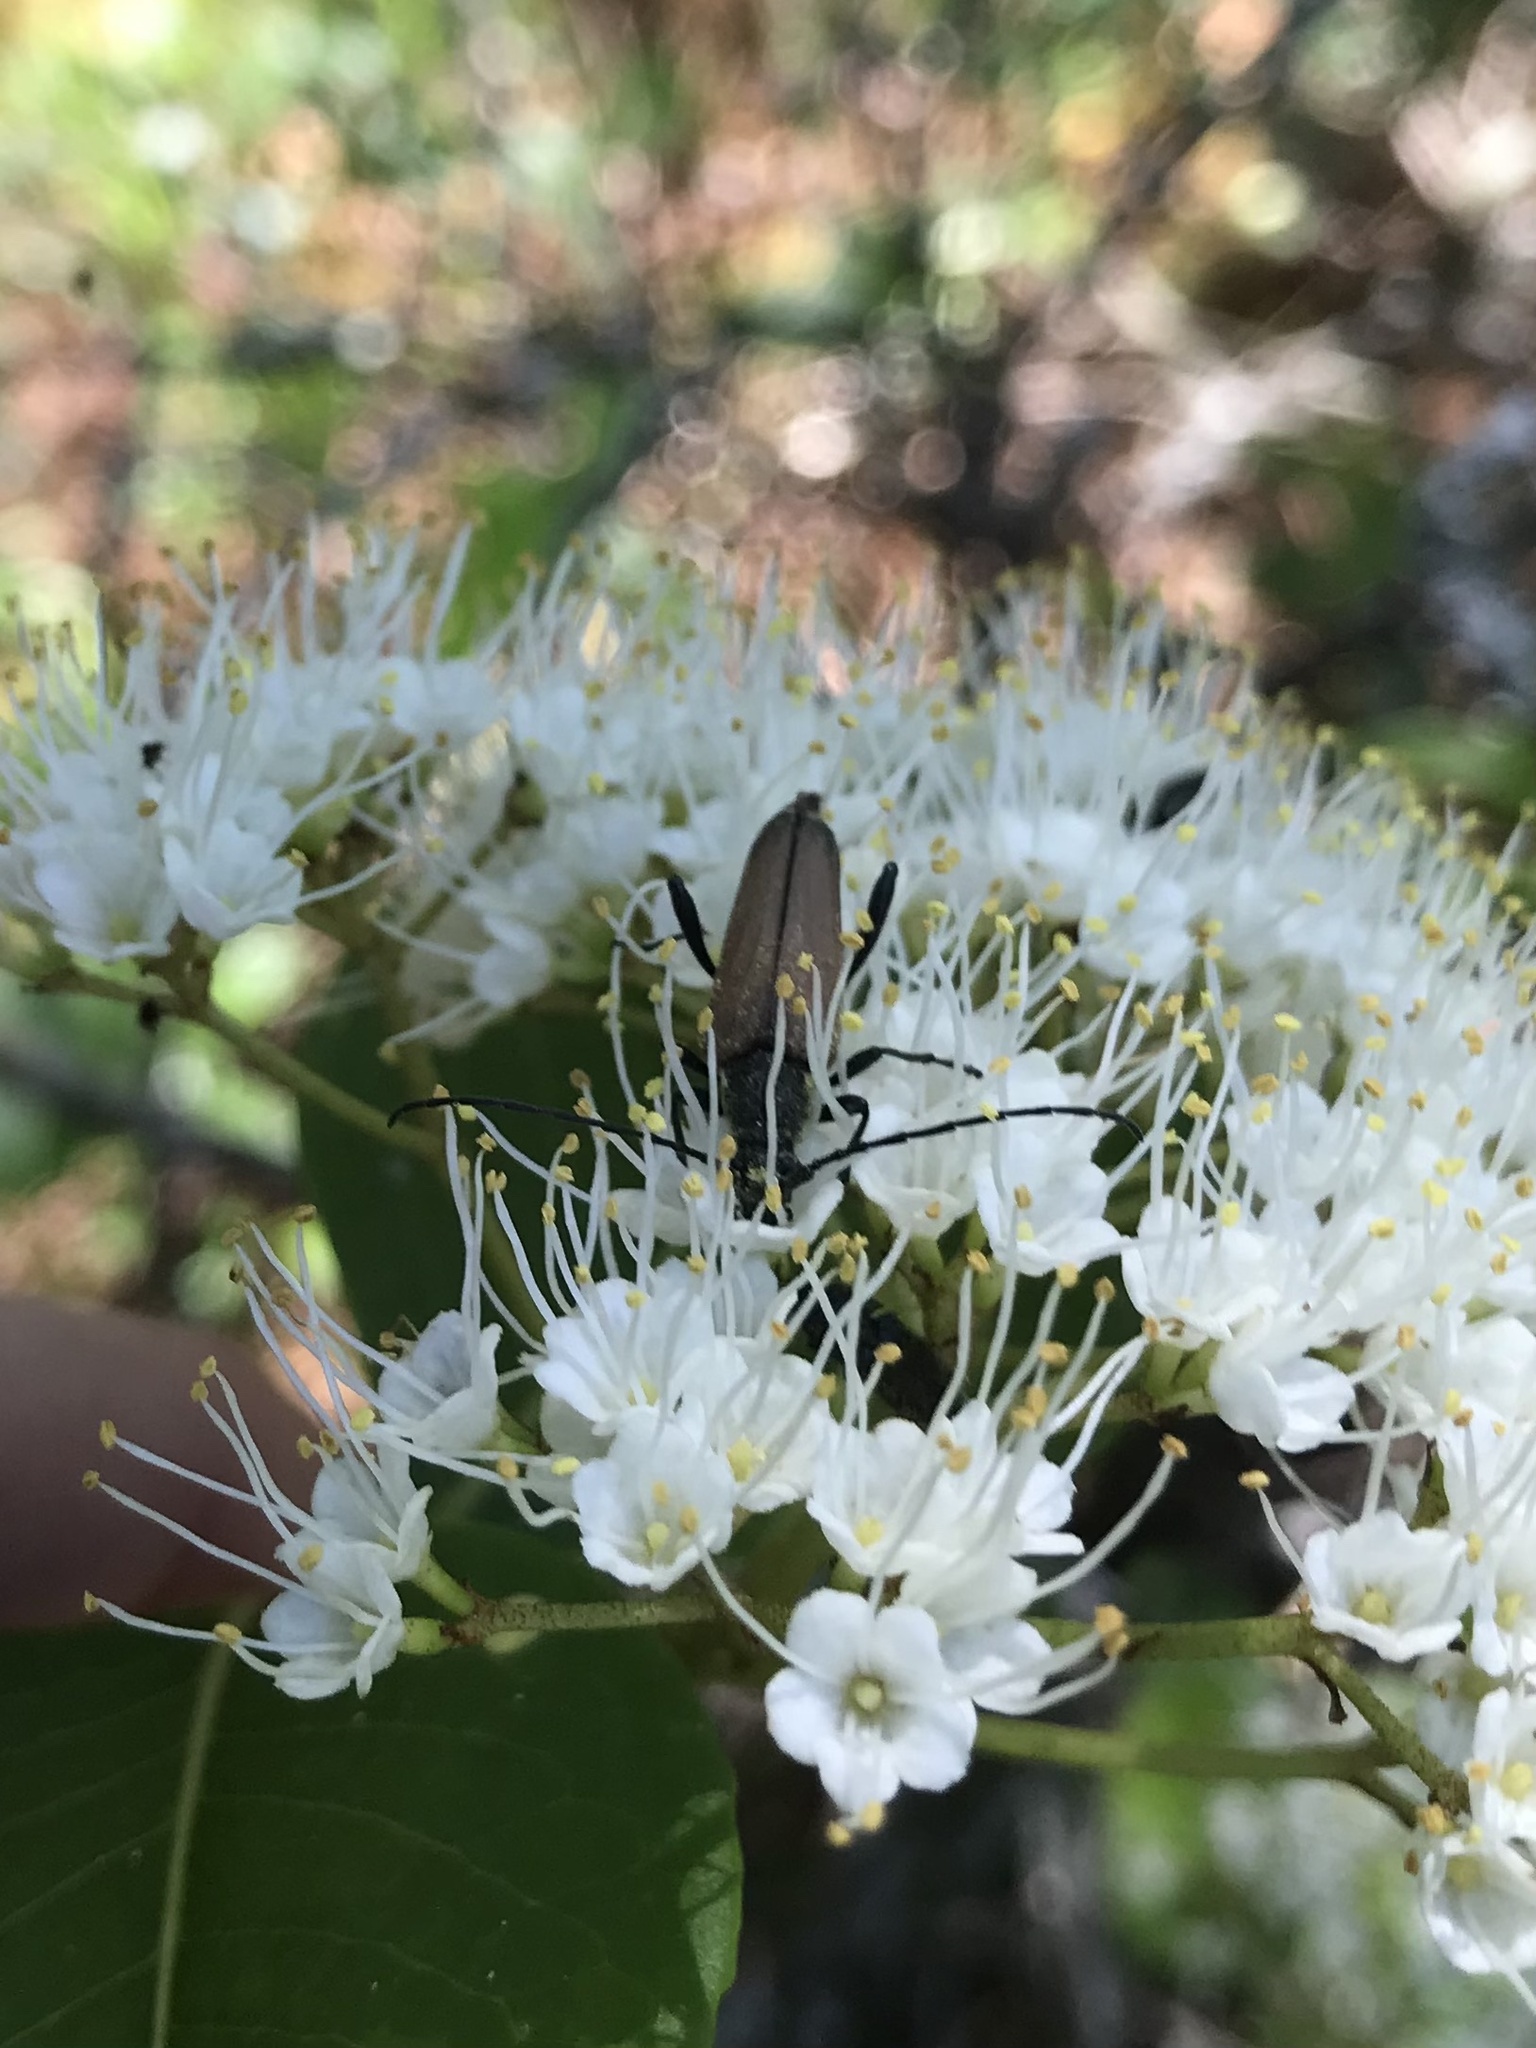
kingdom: Animalia
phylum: Arthropoda
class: Insecta
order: Coleoptera
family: Cerambycidae
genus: Trachysida
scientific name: Trachysida mutabilis
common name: Changeable flower longhorn
